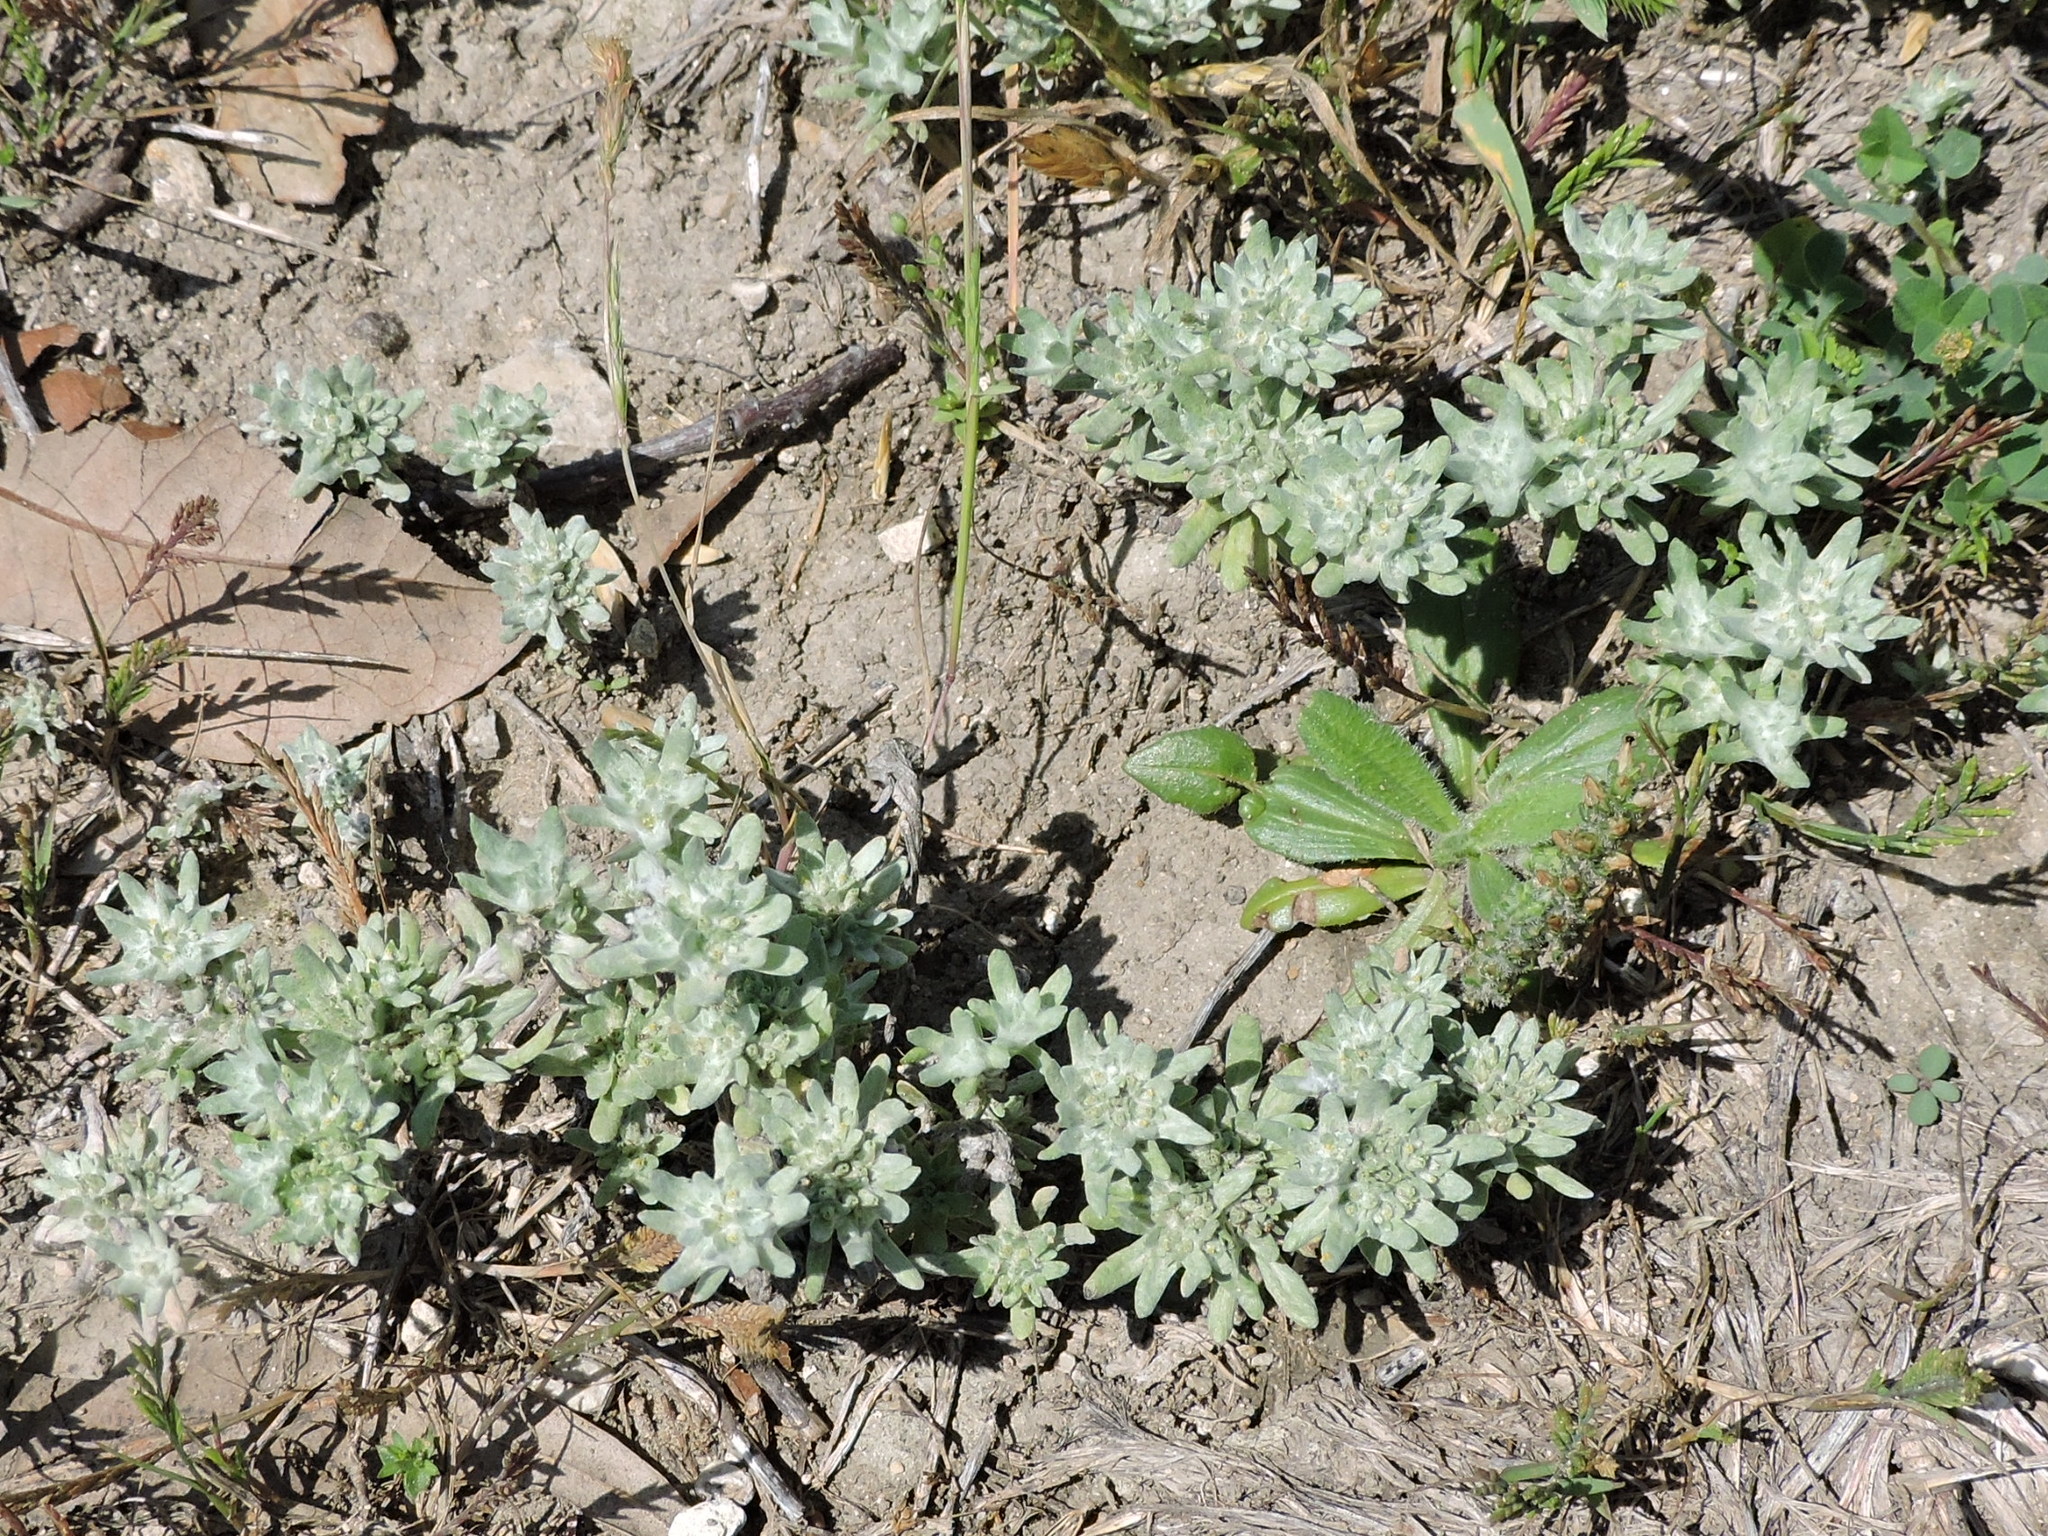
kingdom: Plantae
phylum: Tracheophyta
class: Magnoliopsida
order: Asterales
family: Asteraceae
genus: Diaperia
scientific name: Diaperia prolifera
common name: Big-head rabbit-tobacco
